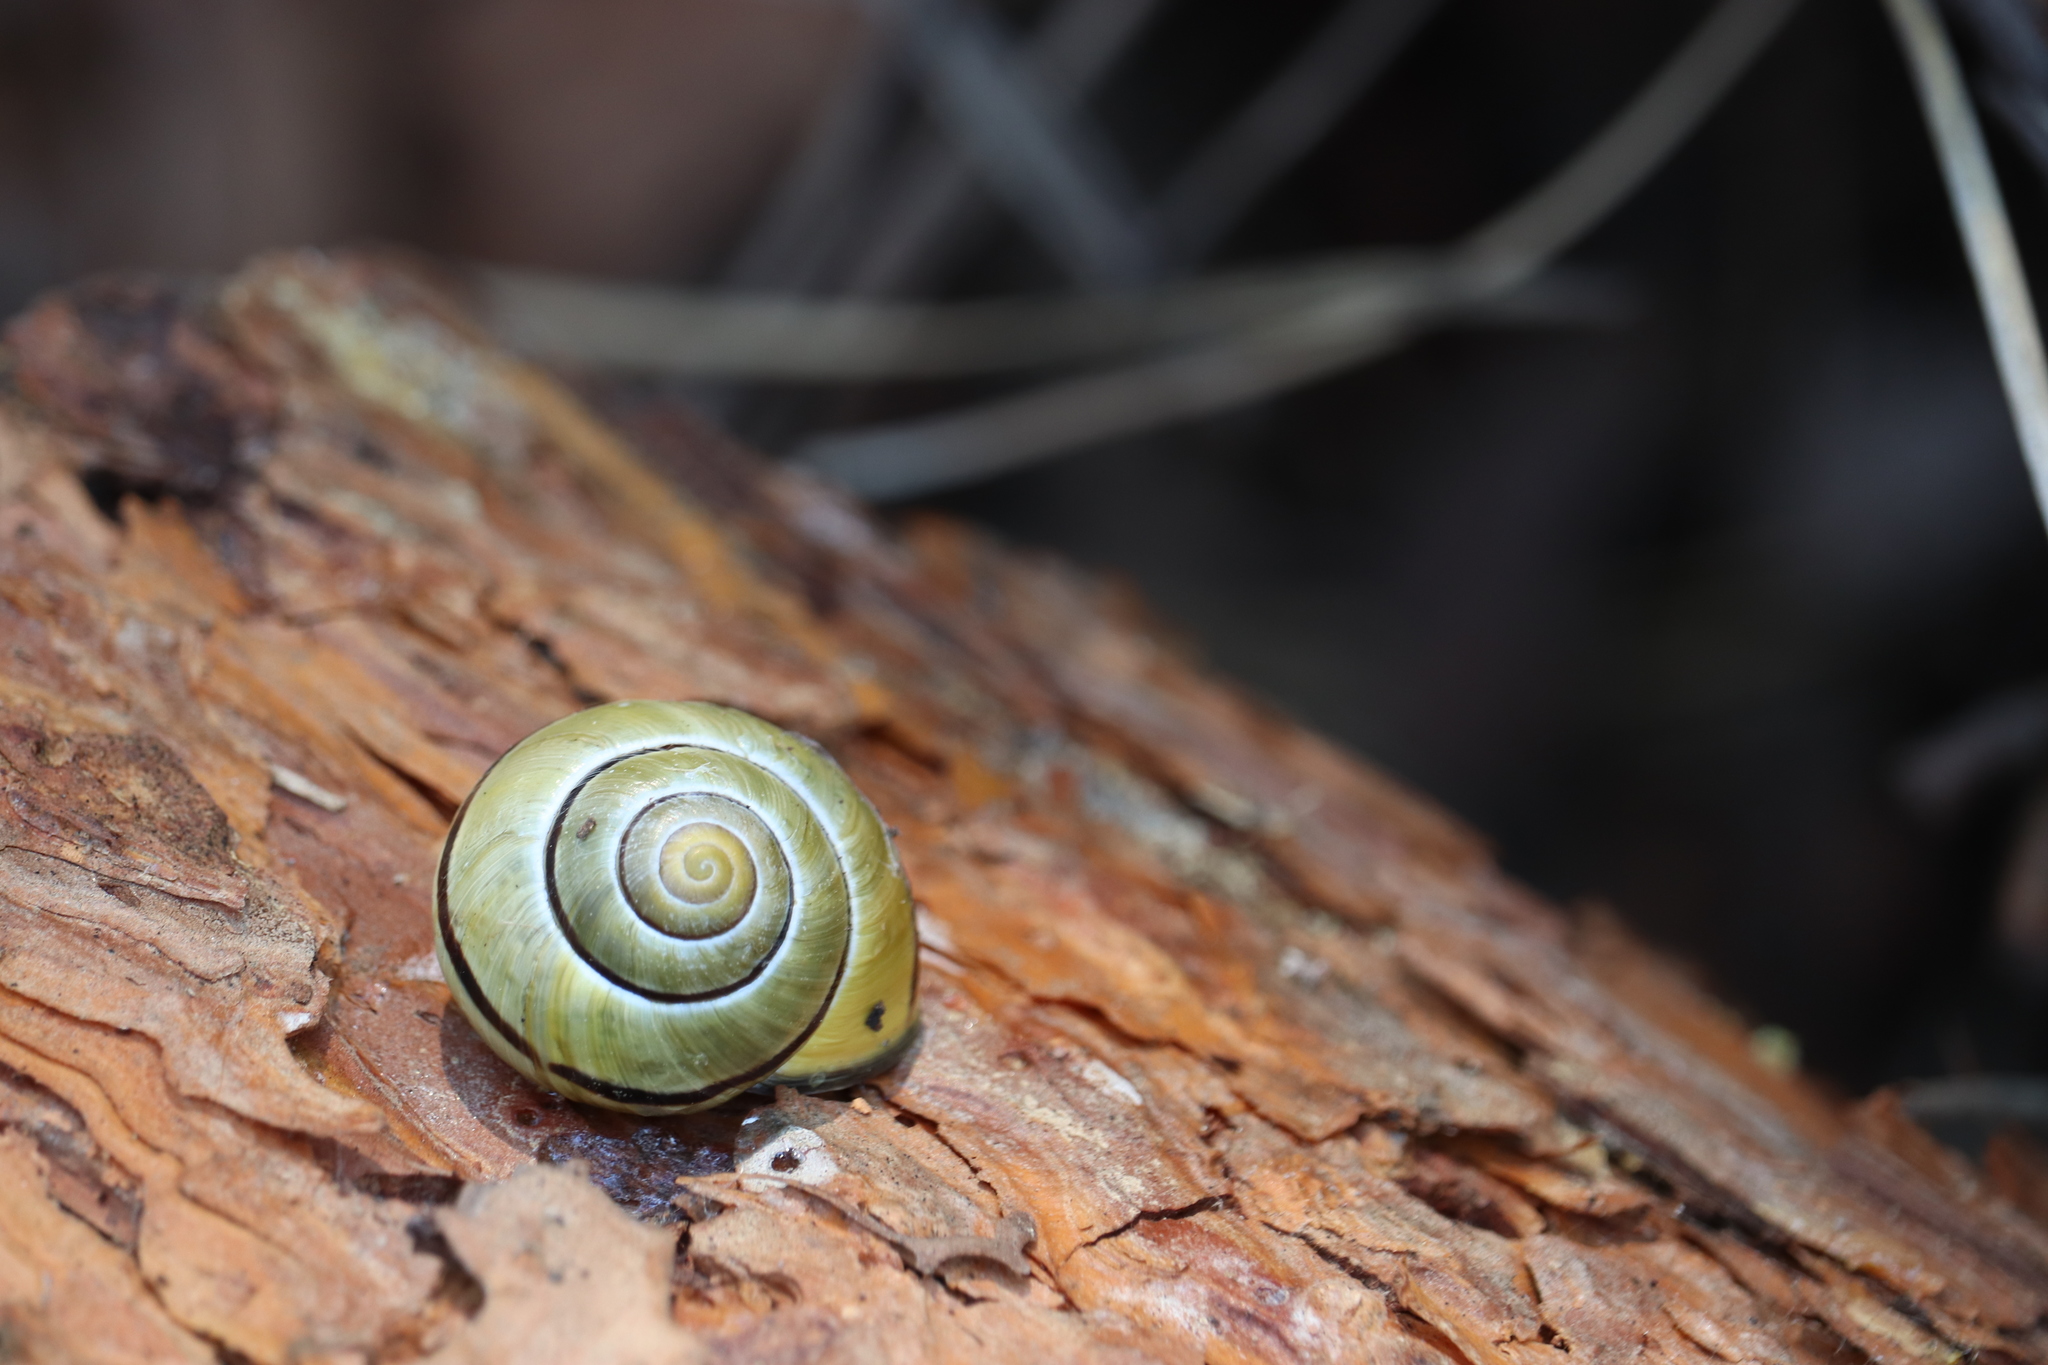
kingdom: Animalia
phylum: Mollusca
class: Gastropoda
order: Stylommatophora
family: Helicidae
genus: Cepaea
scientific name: Cepaea nemoralis
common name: Grovesnail
